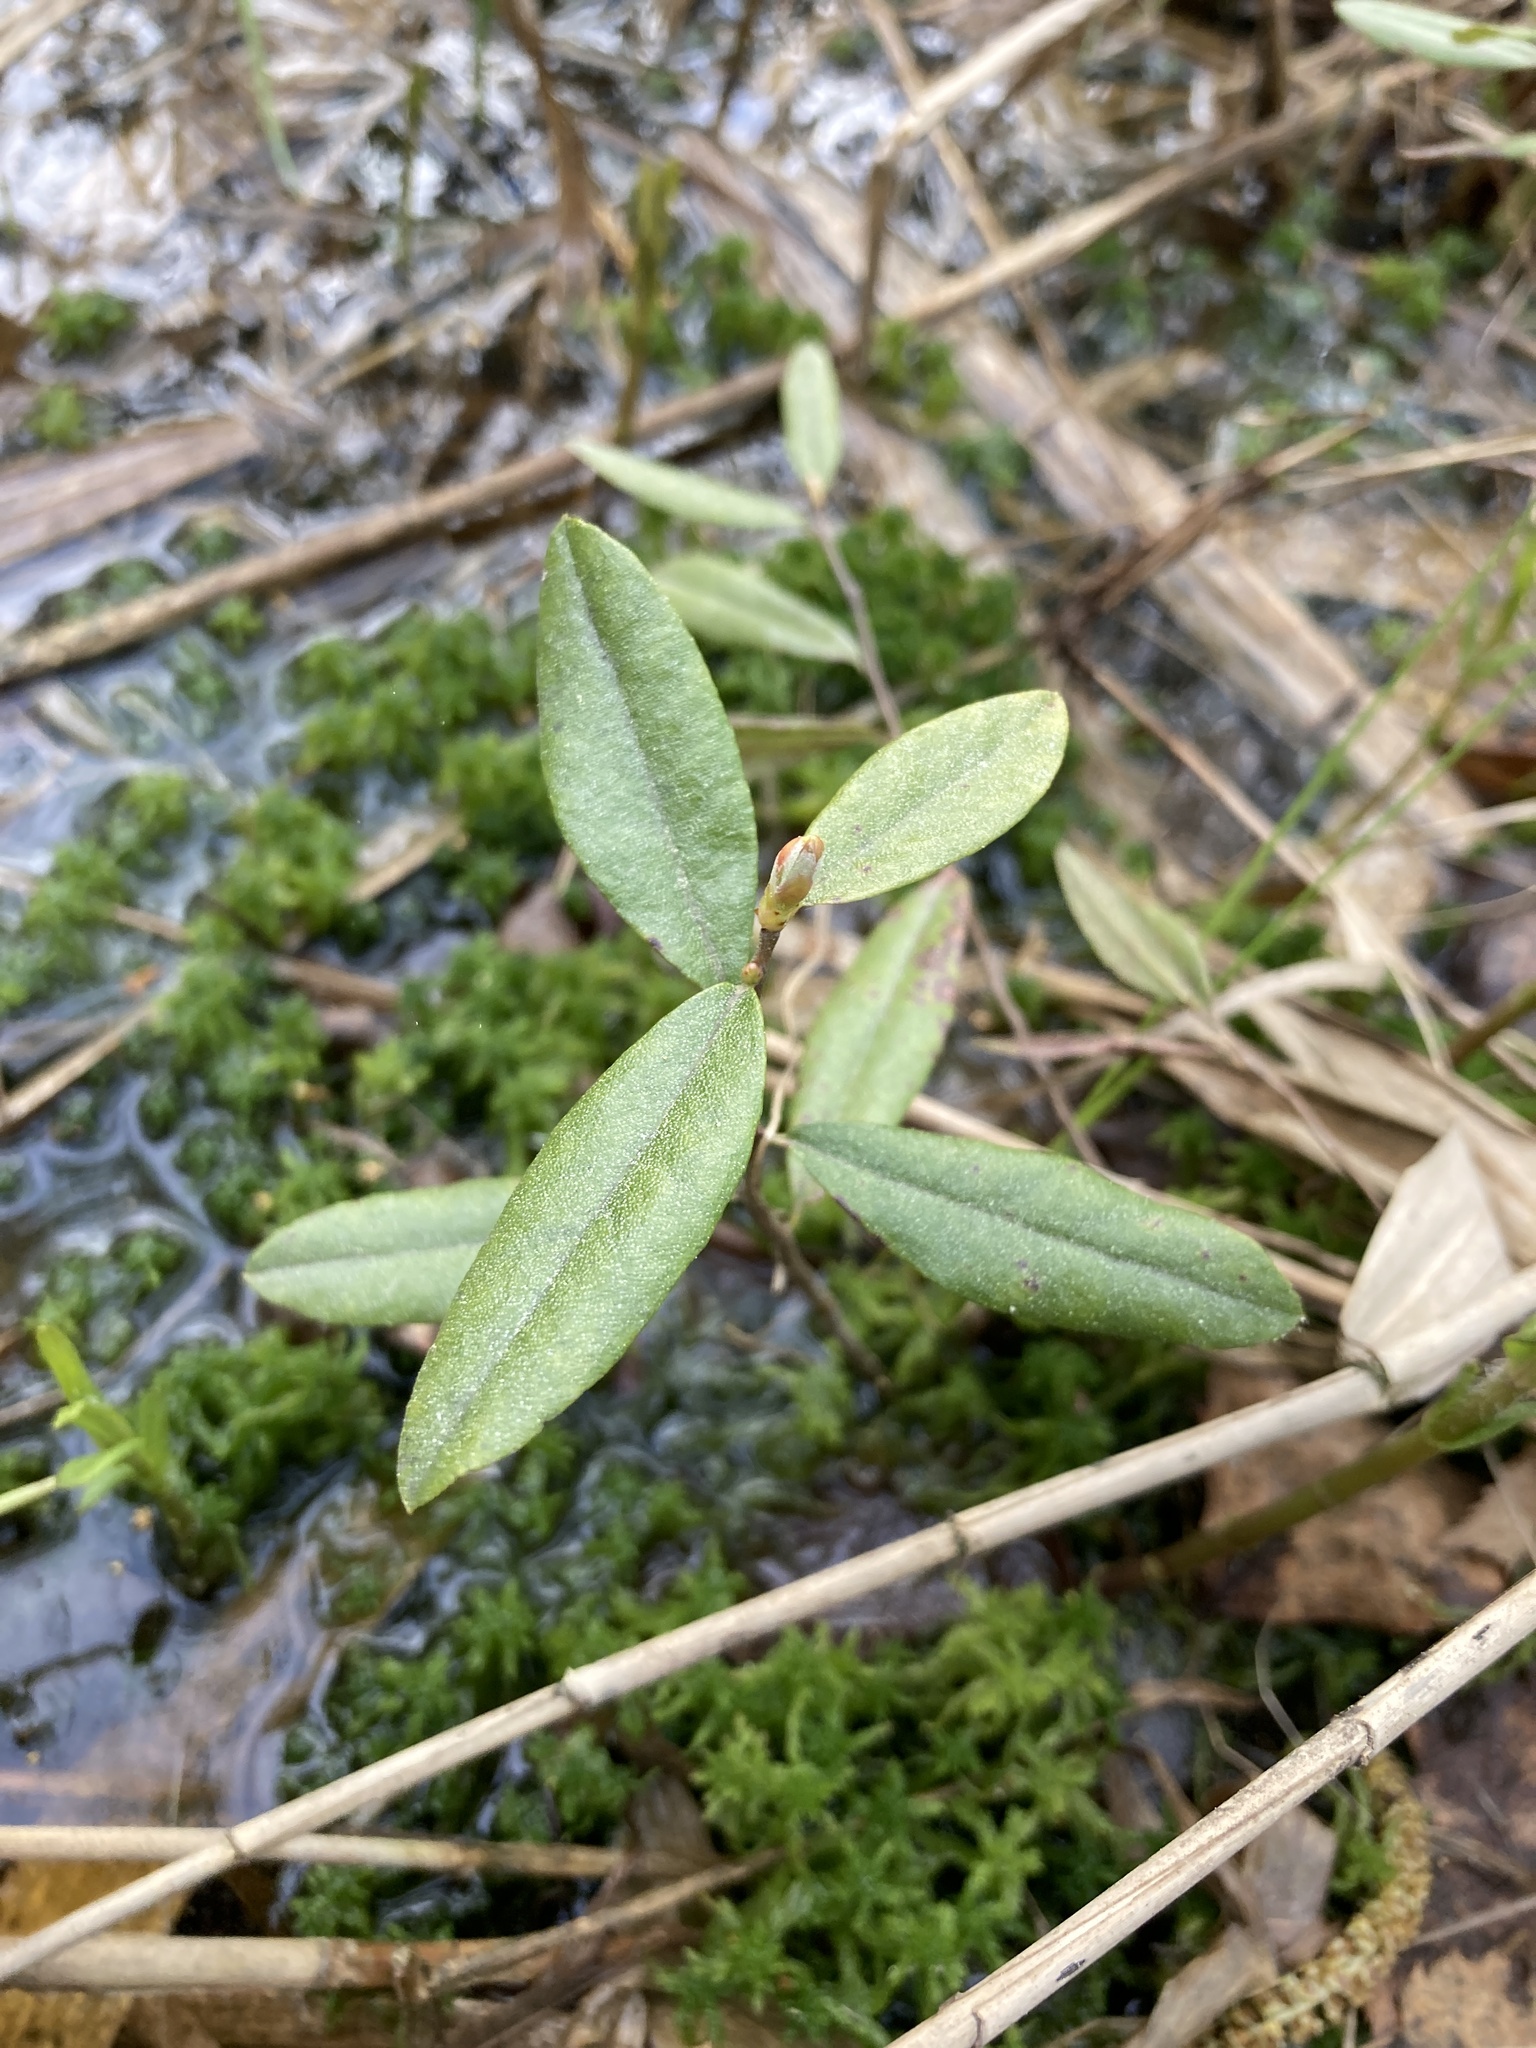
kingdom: Plantae
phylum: Tracheophyta
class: Magnoliopsida
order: Ericales
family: Ericaceae
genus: Chamaedaphne
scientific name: Chamaedaphne calyculata
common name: Leatherleaf
